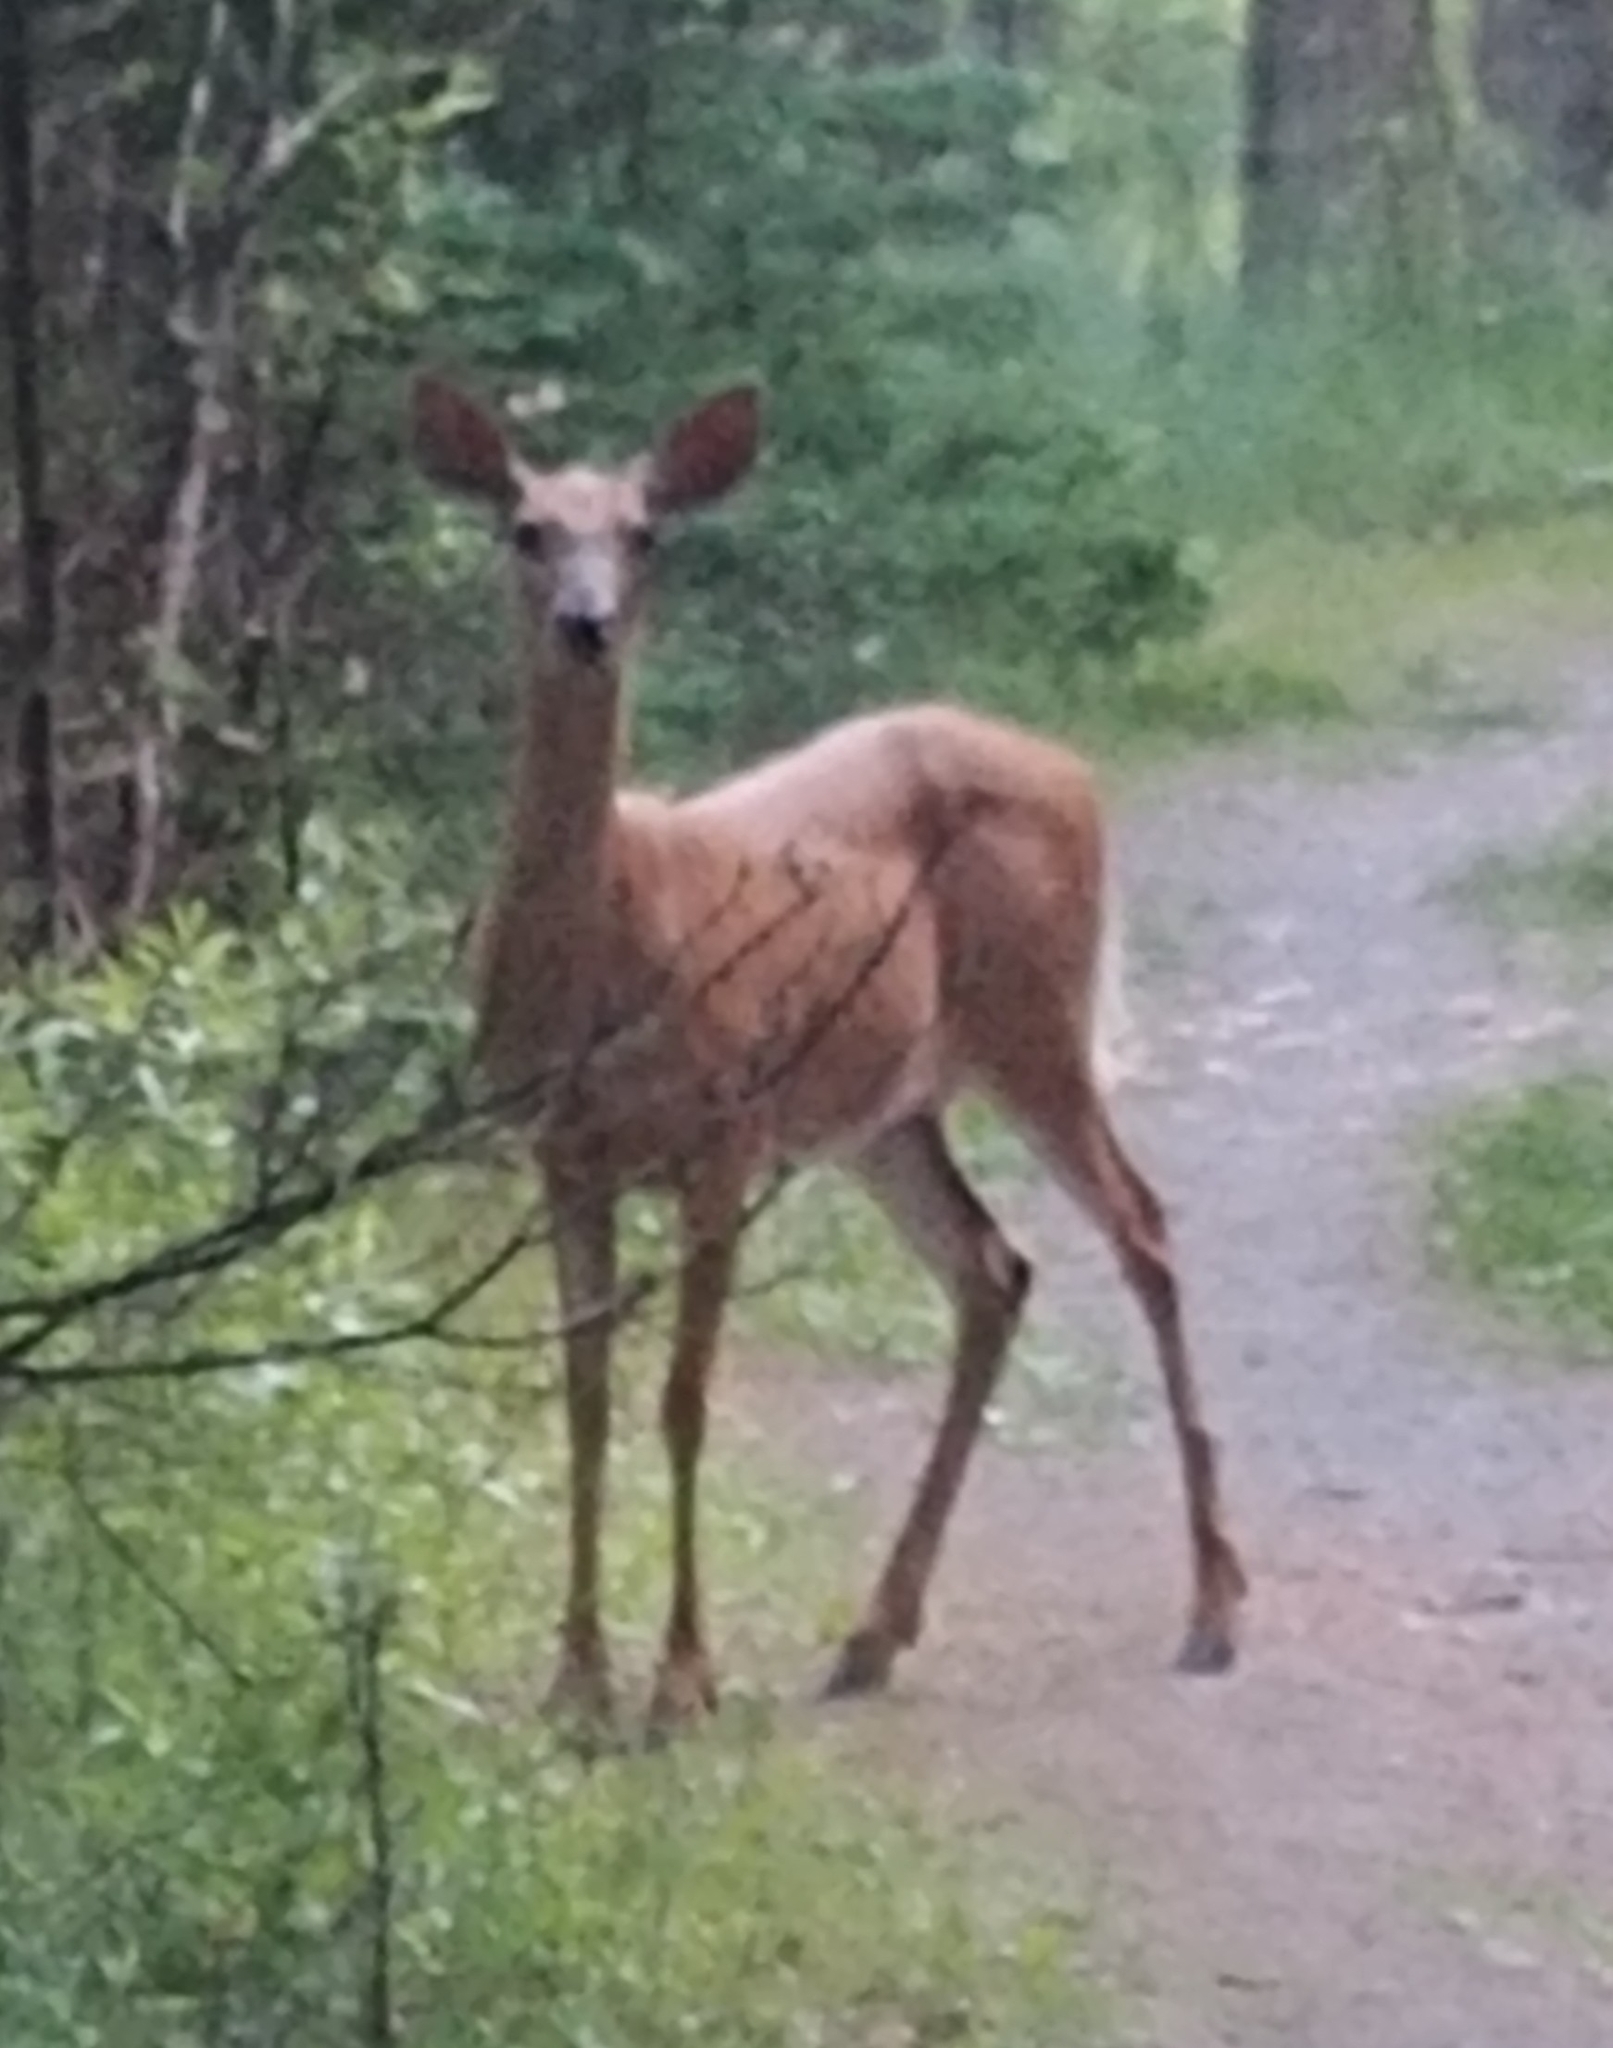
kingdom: Animalia
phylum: Chordata
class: Mammalia
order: Artiodactyla
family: Cervidae
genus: Odocoileus
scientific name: Odocoileus virginianus
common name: White-tailed deer
